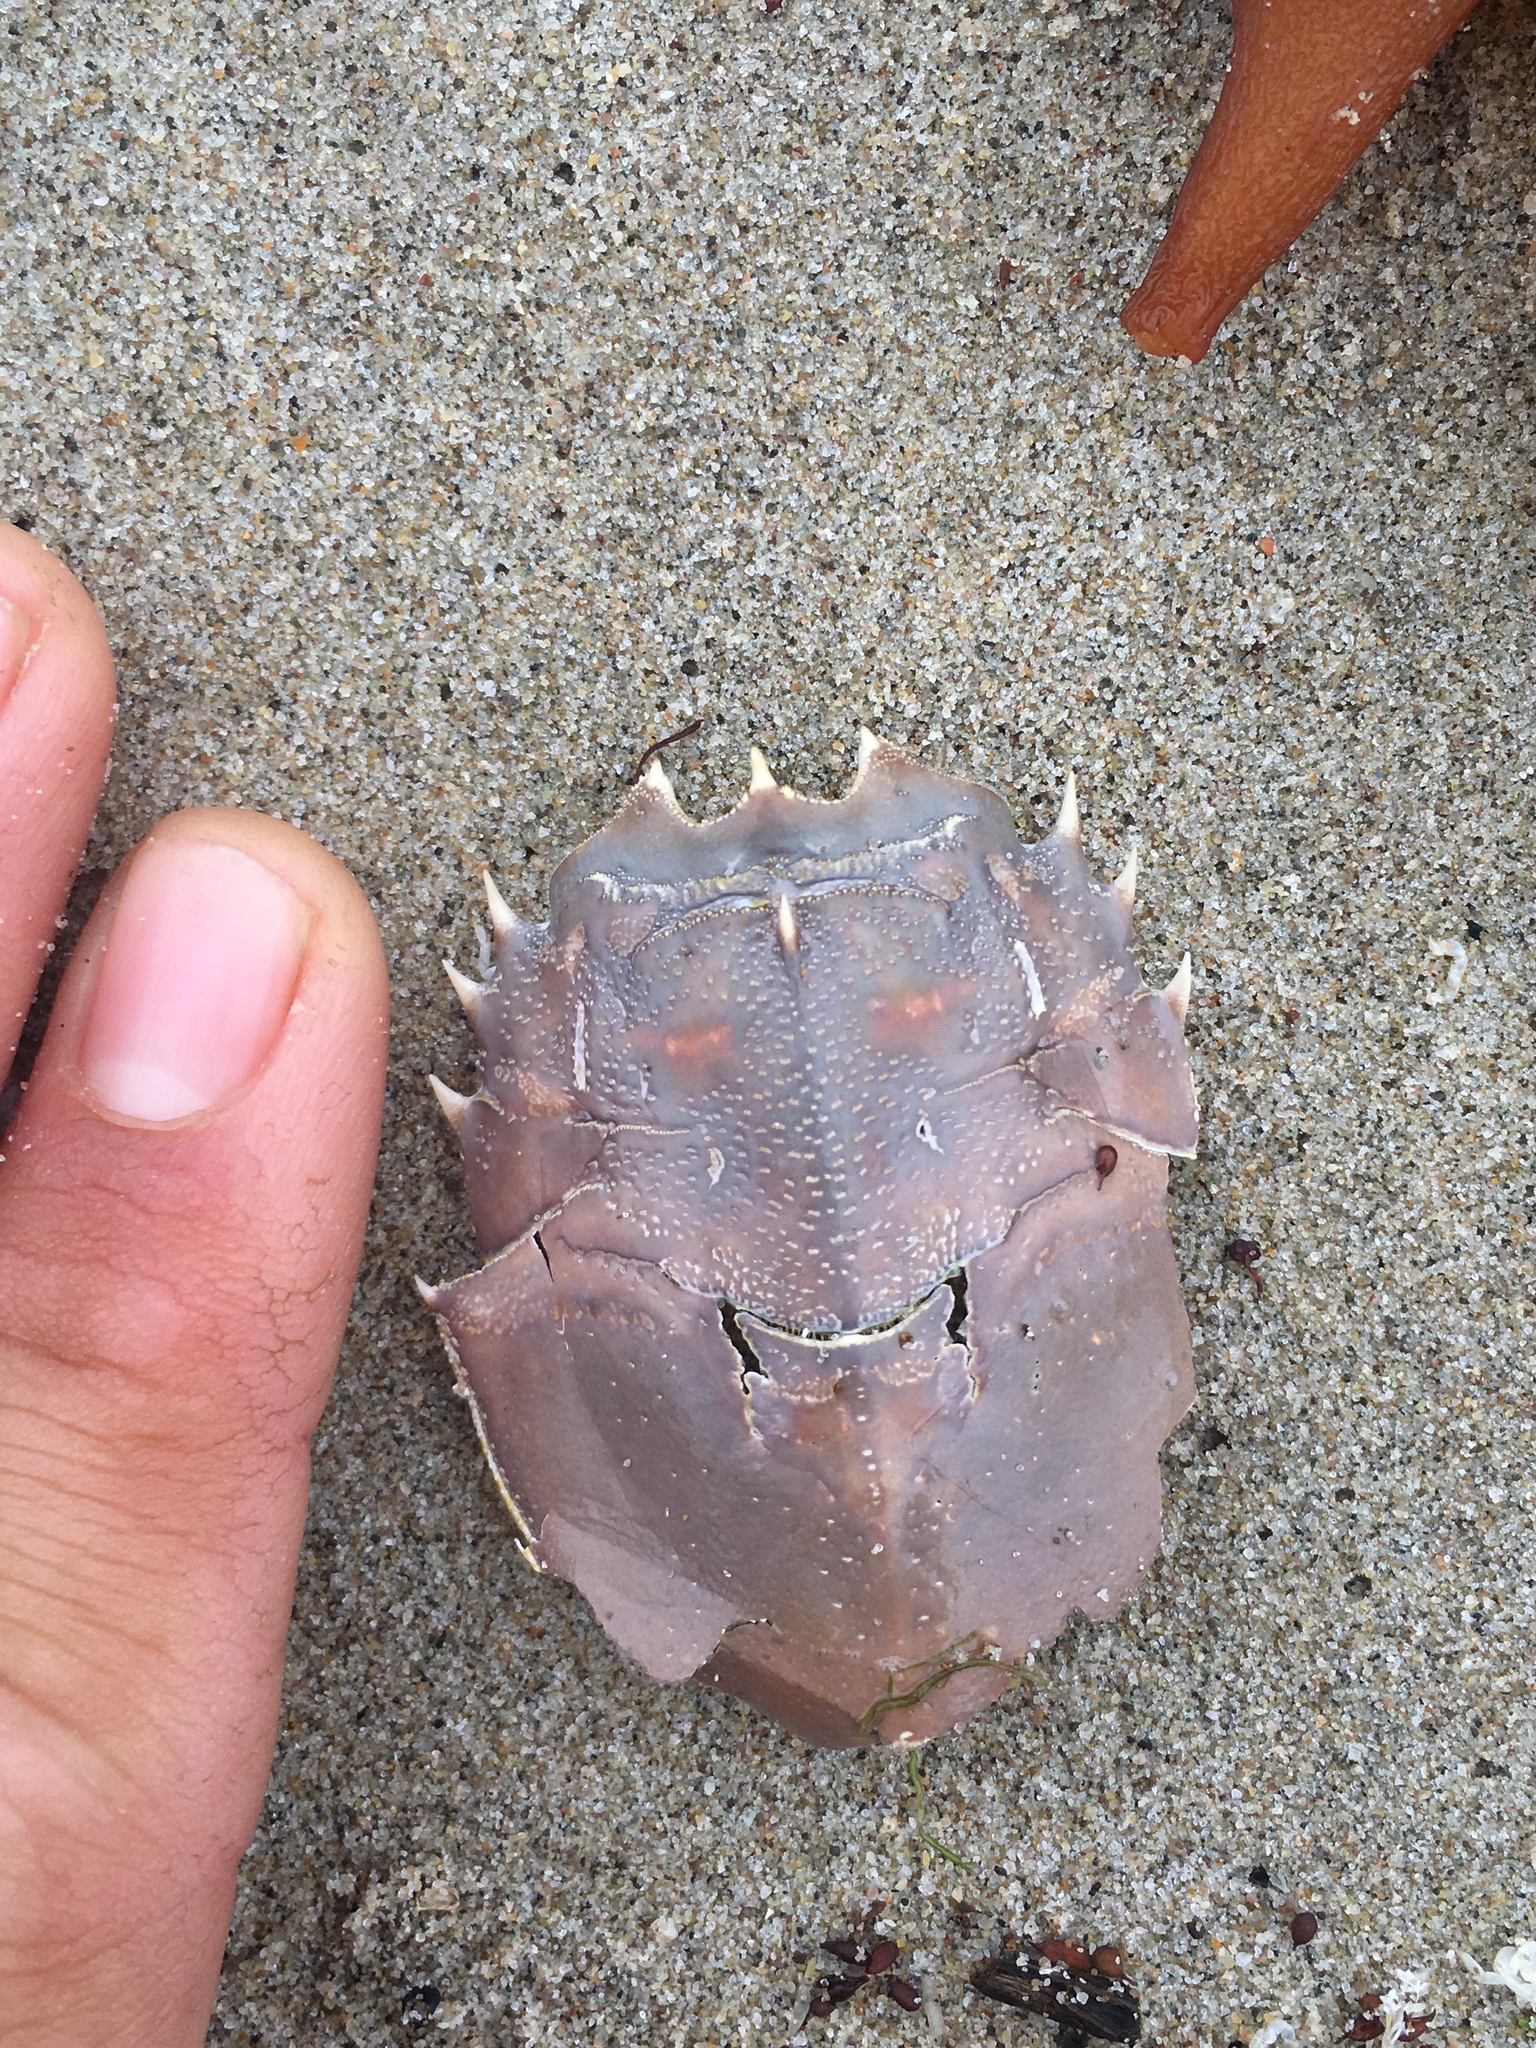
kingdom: Animalia
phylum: Arthropoda
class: Malacostraca
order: Decapoda
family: Blepharipodidae
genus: Blepharipoda
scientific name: Blepharipoda occidentalis
